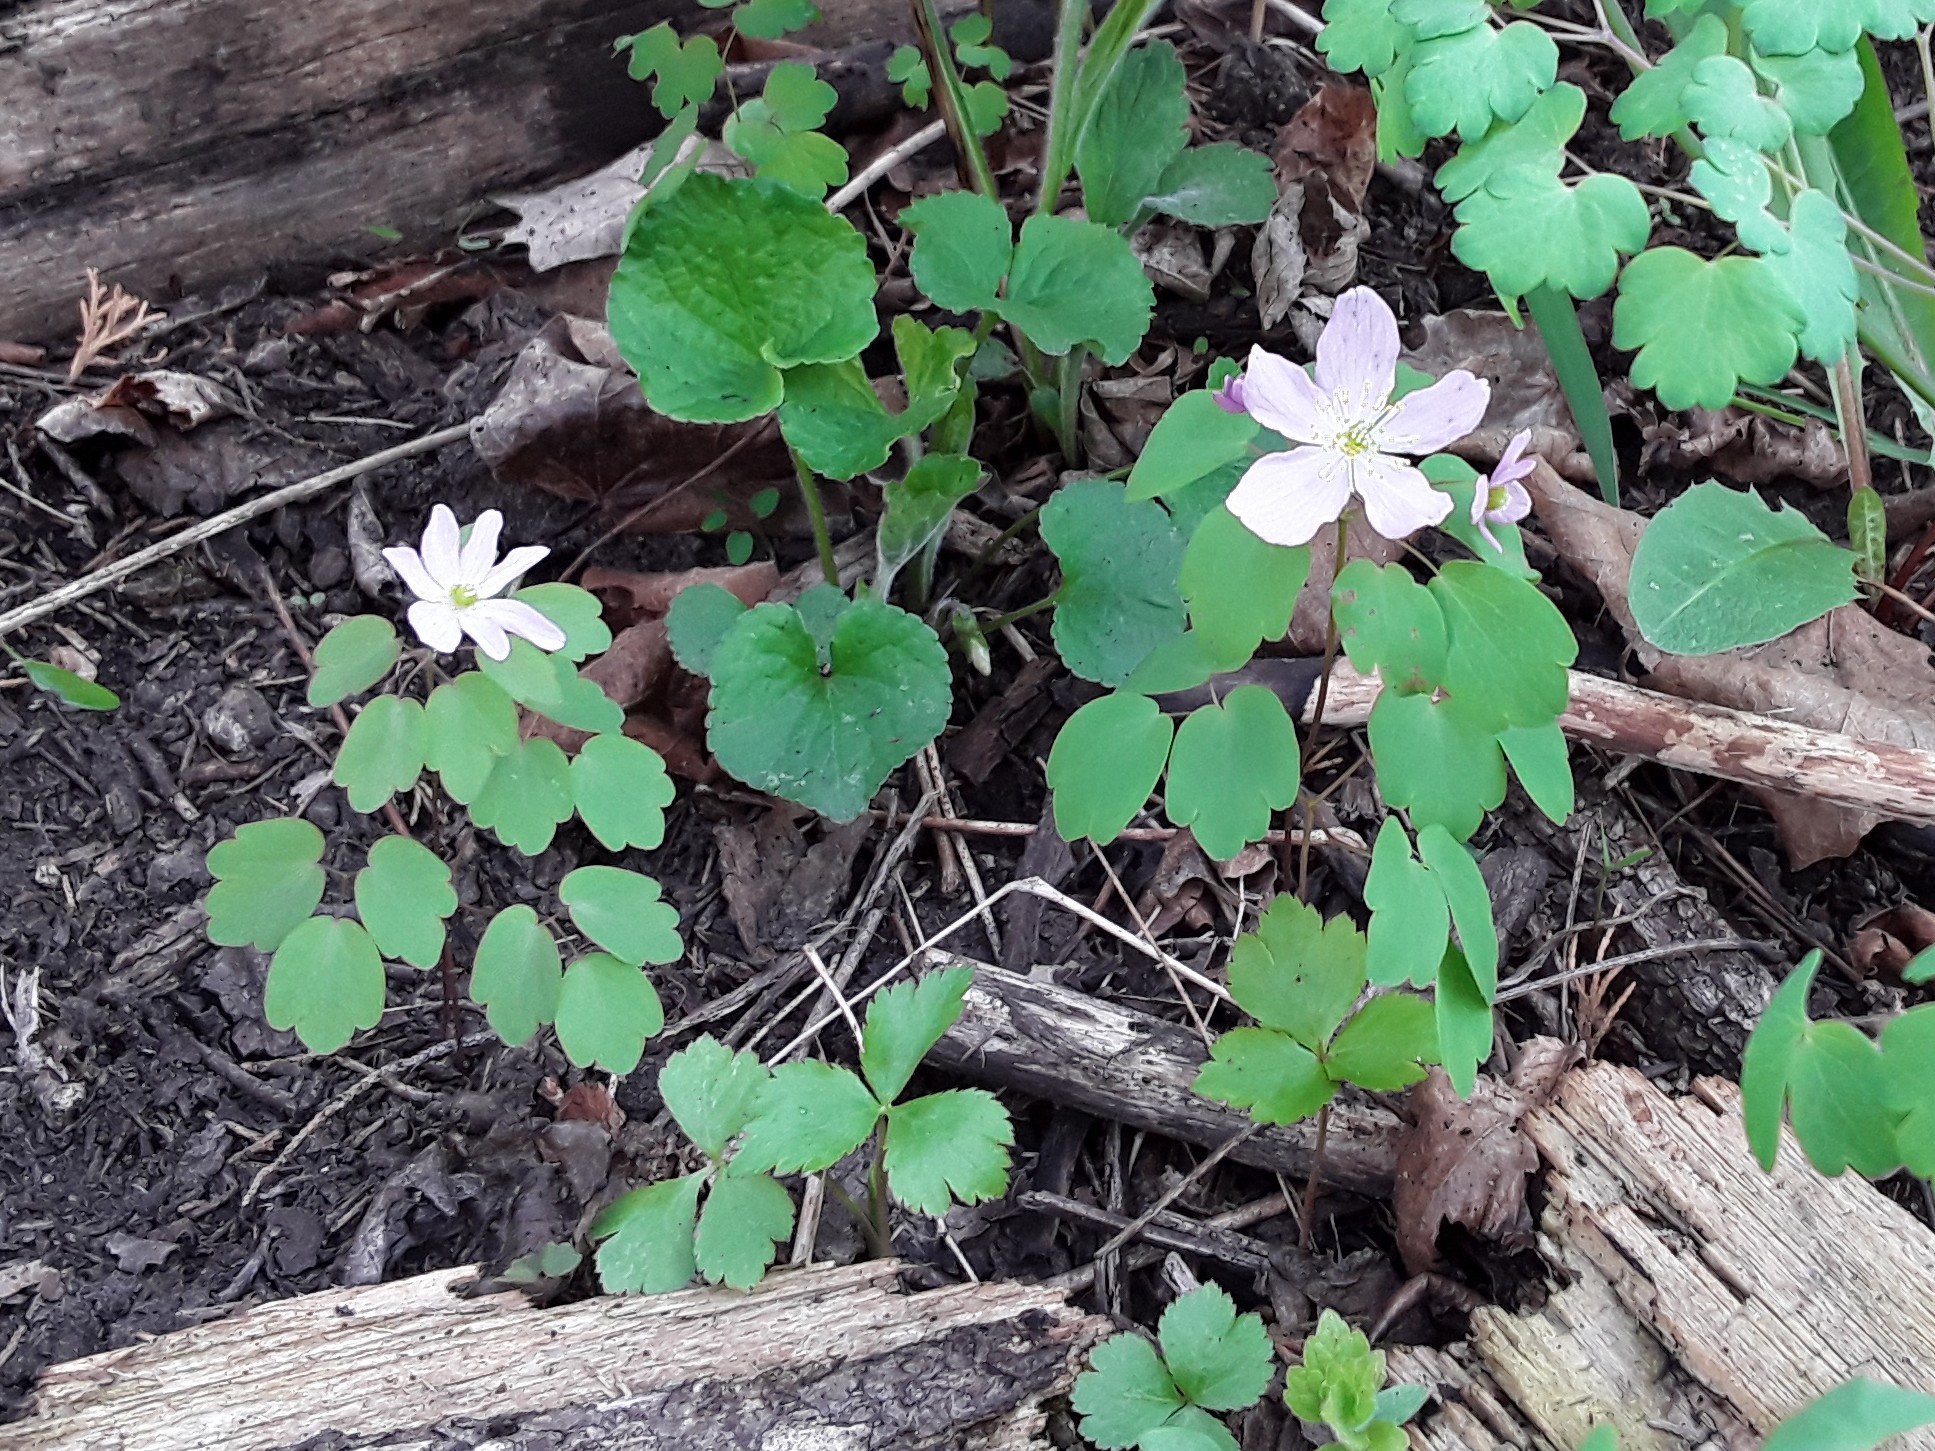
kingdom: Plantae
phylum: Tracheophyta
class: Magnoliopsida
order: Ranunculales
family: Ranunculaceae
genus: Thalictrum
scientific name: Thalictrum thalictroides
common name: Rue-anemone
